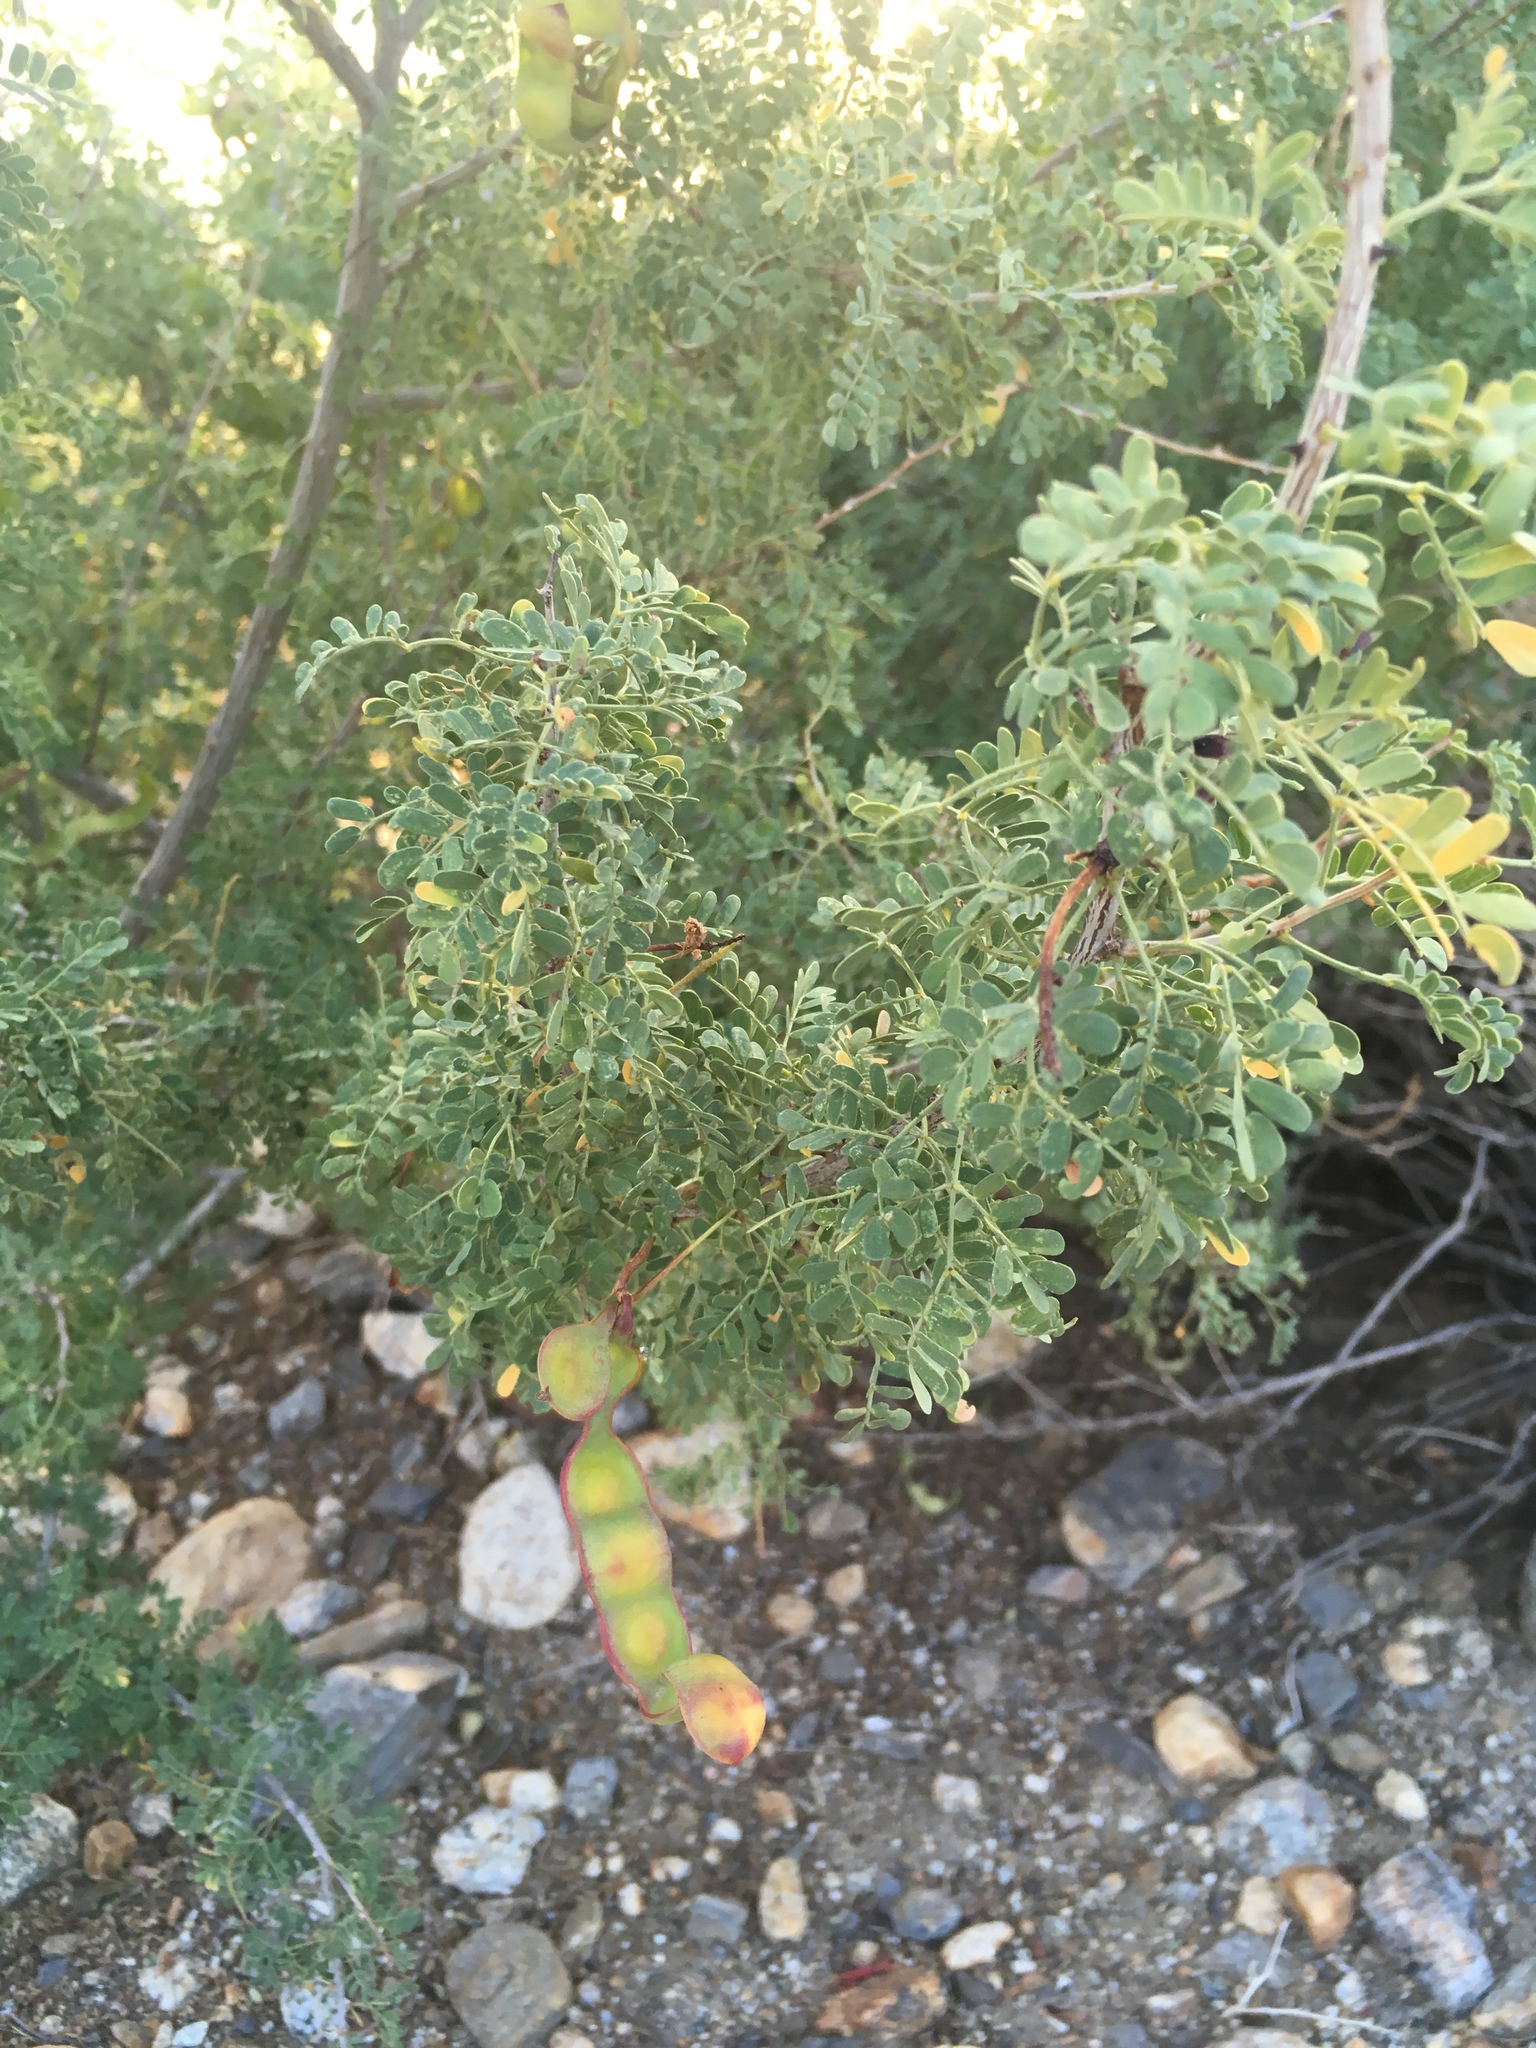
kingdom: Plantae
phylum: Tracheophyta
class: Magnoliopsida
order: Fabales
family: Fabaceae
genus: Senegalia
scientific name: Senegalia greggii
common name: Texas-mimosa
